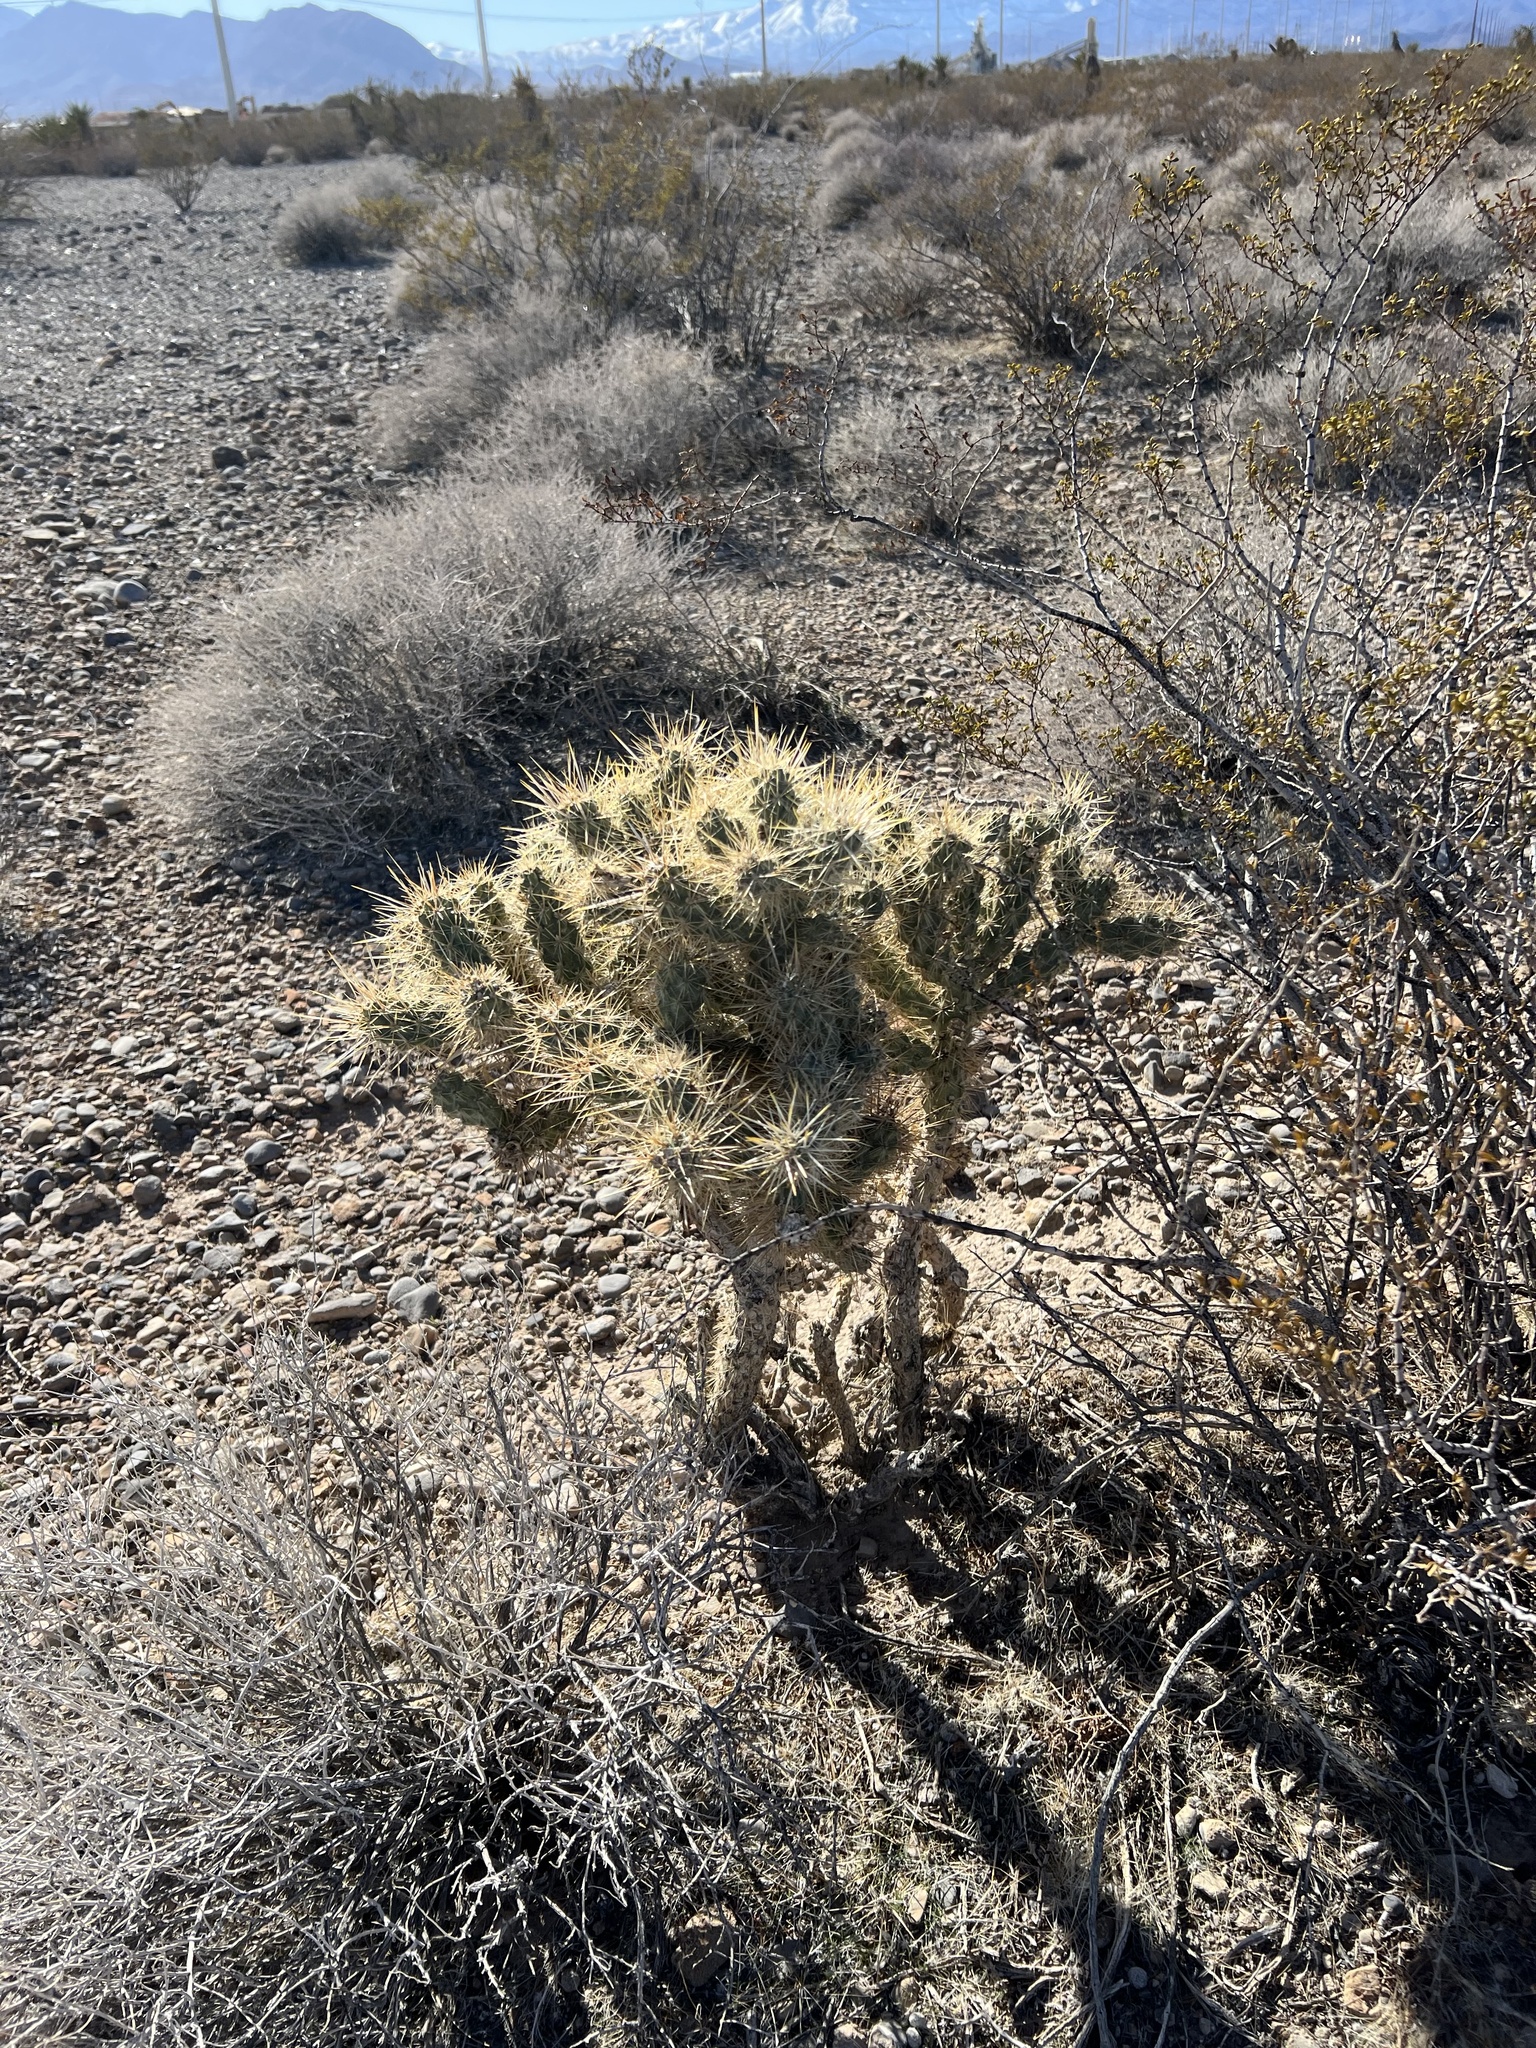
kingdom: Plantae
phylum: Tracheophyta
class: Magnoliopsida
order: Caryophyllales
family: Cactaceae
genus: Cylindropuntia
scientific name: Cylindropuntia echinocarpa
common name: Ground cholla
